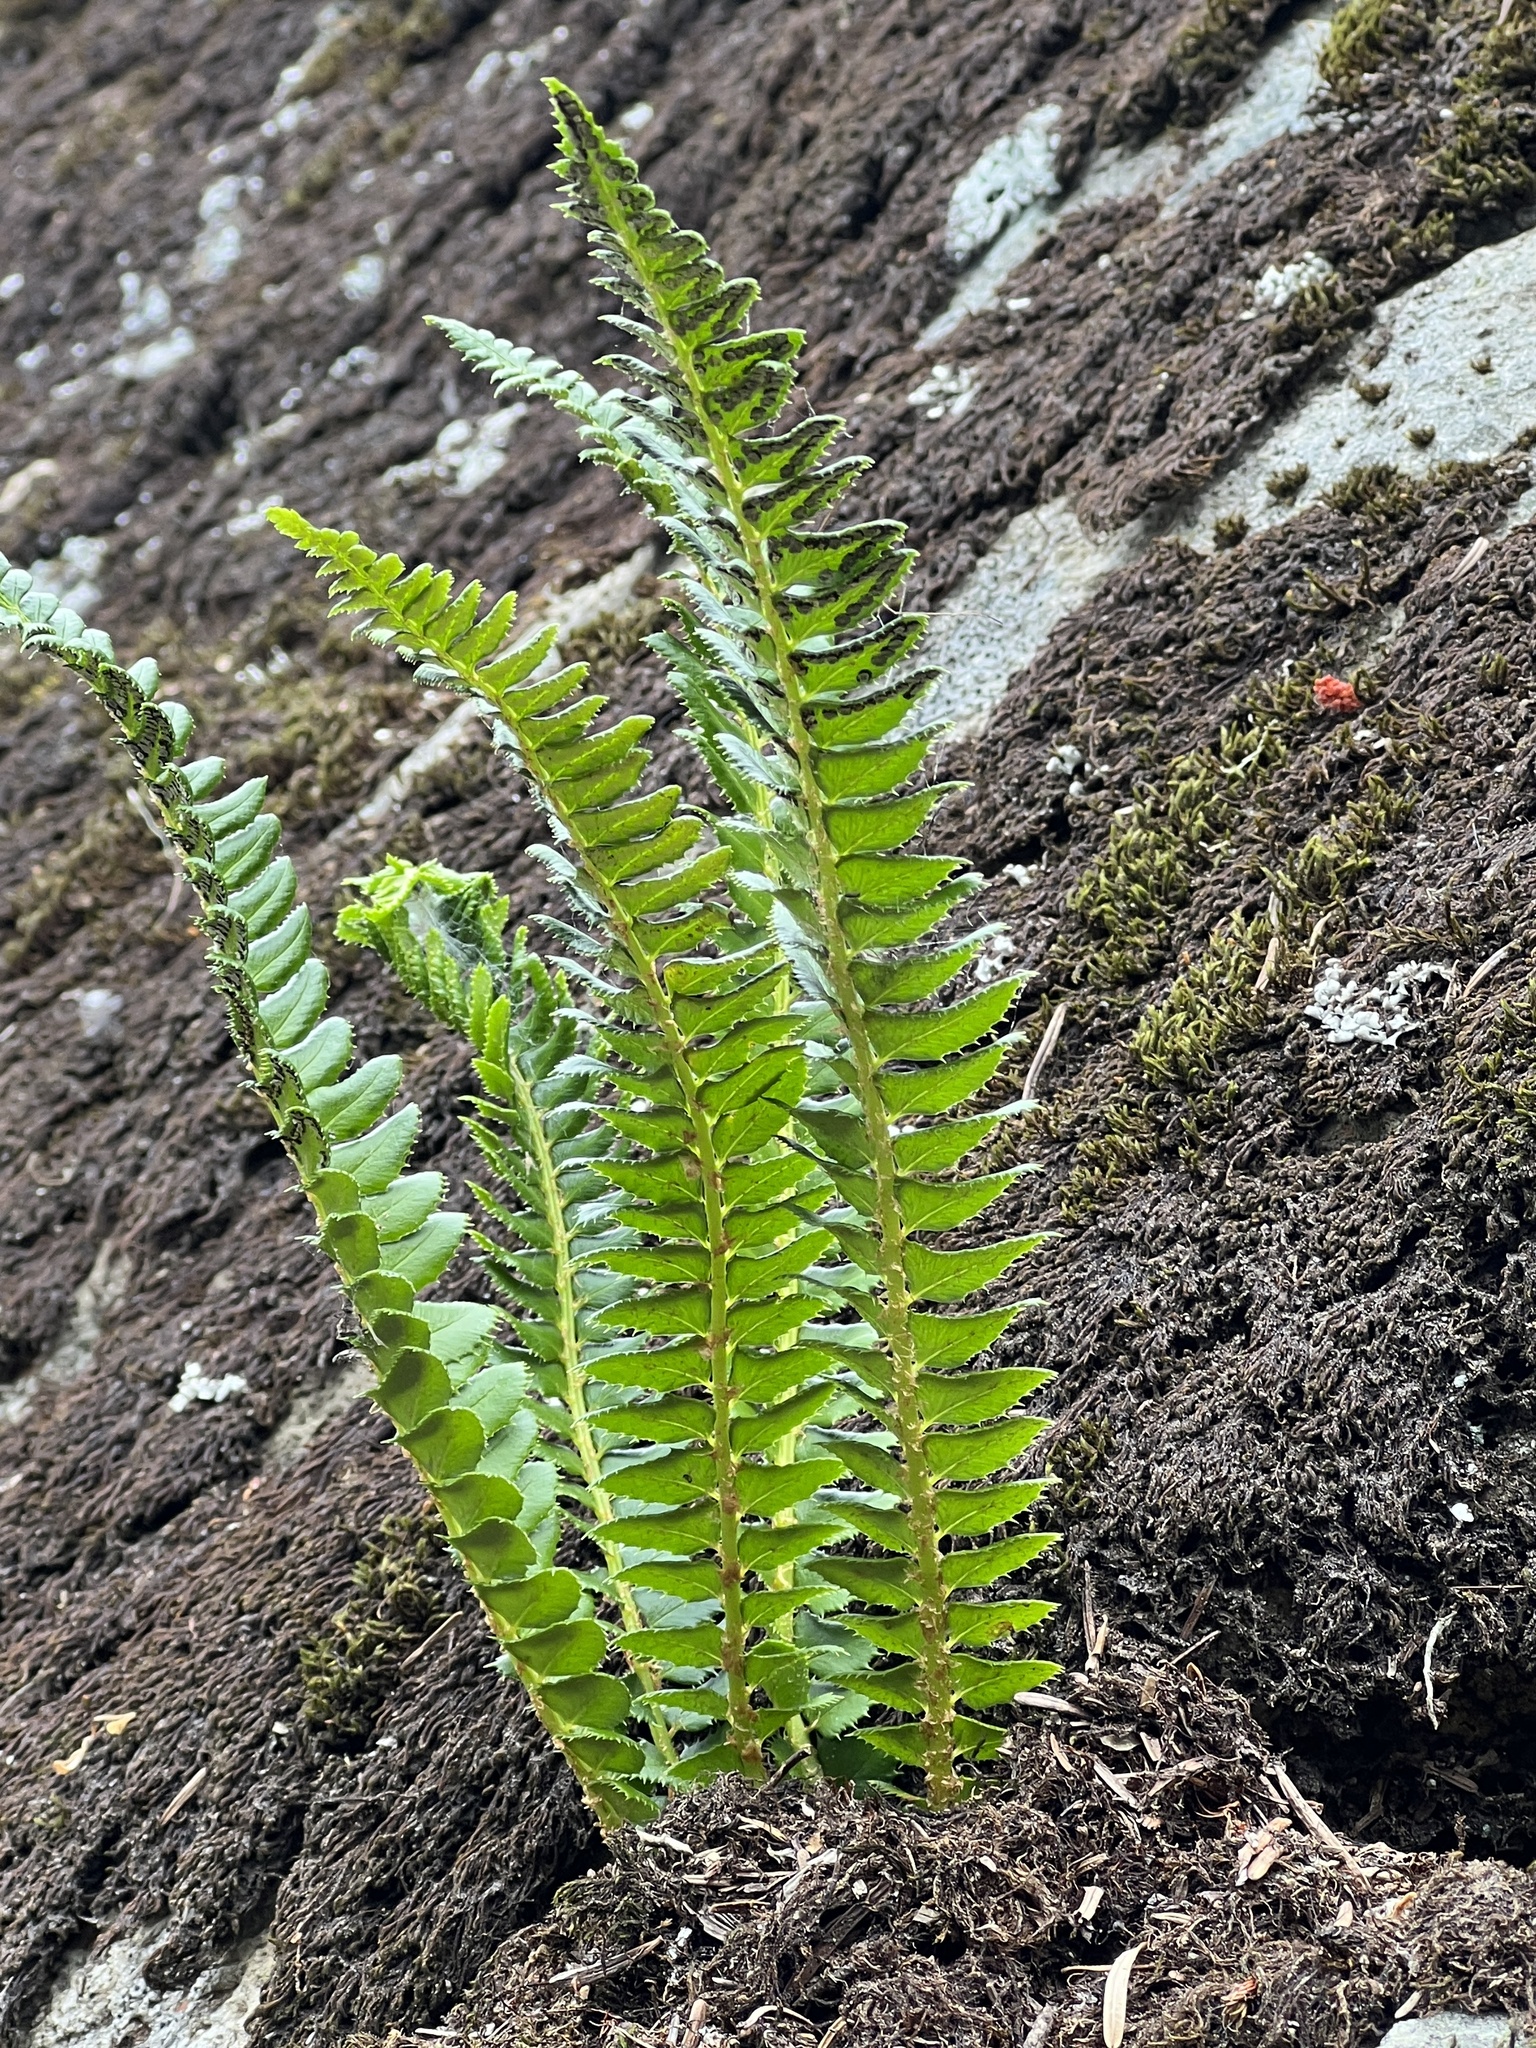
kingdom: Plantae
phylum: Tracheophyta
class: Polypodiopsida
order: Polypodiales
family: Dryopteridaceae
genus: Polystichum
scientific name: Polystichum lonchitis
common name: Holly fern
